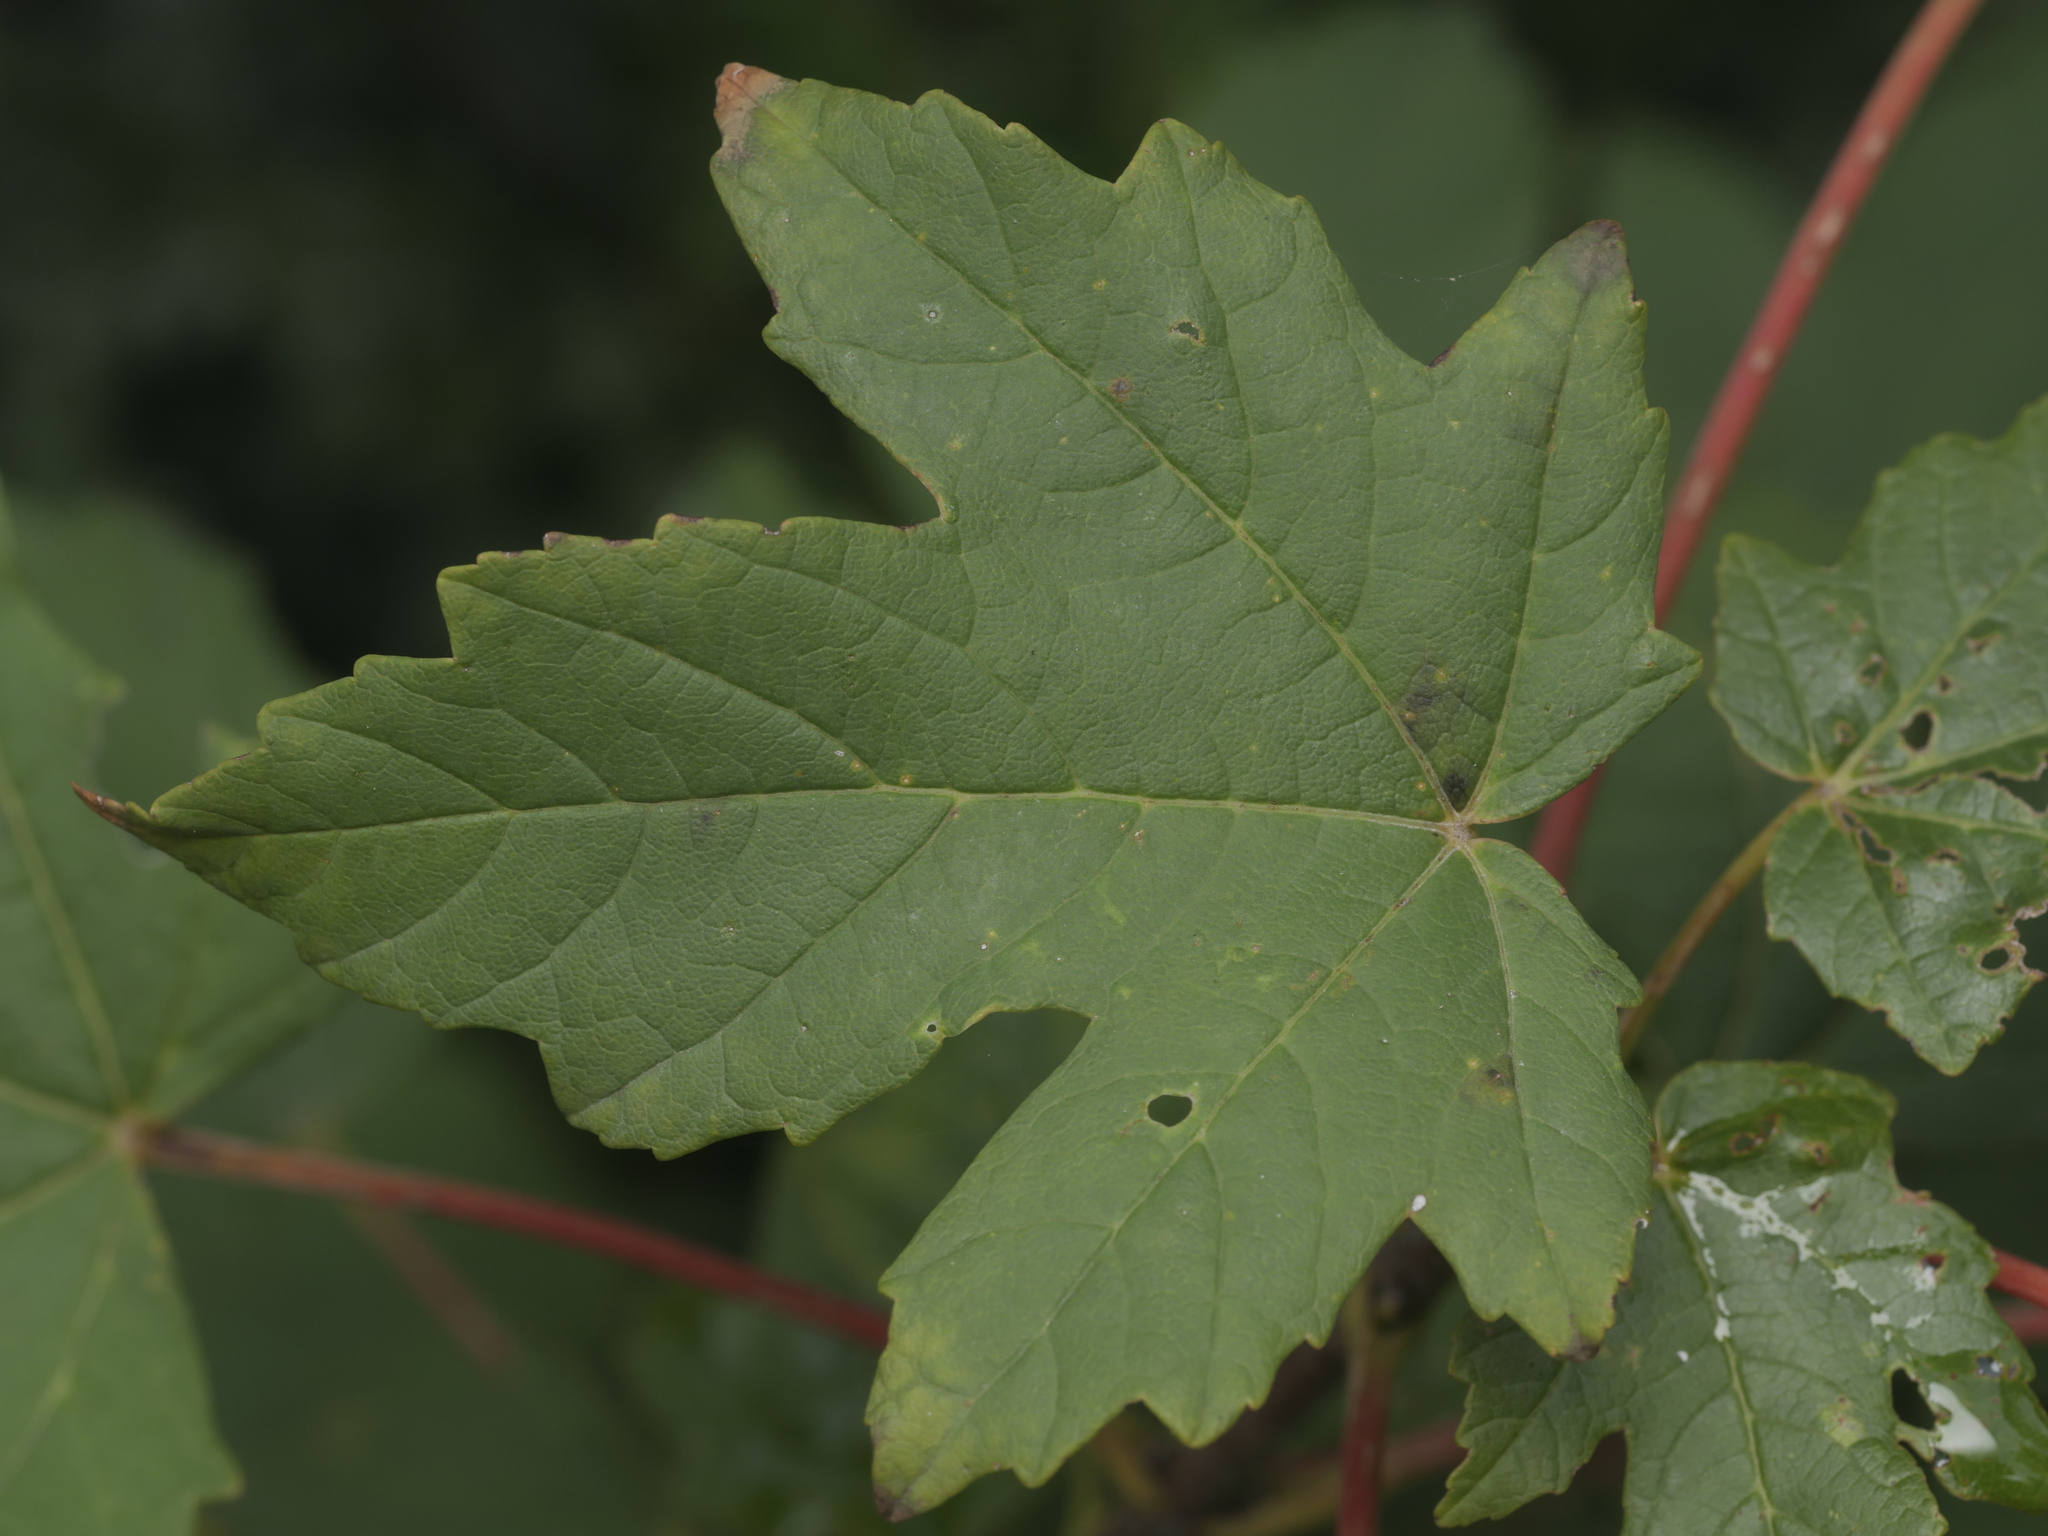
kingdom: Plantae
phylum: Tracheophyta
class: Magnoliopsida
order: Sapindales
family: Sapindaceae
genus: Acer
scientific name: Acer pseudoplatanus
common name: Sycamore
